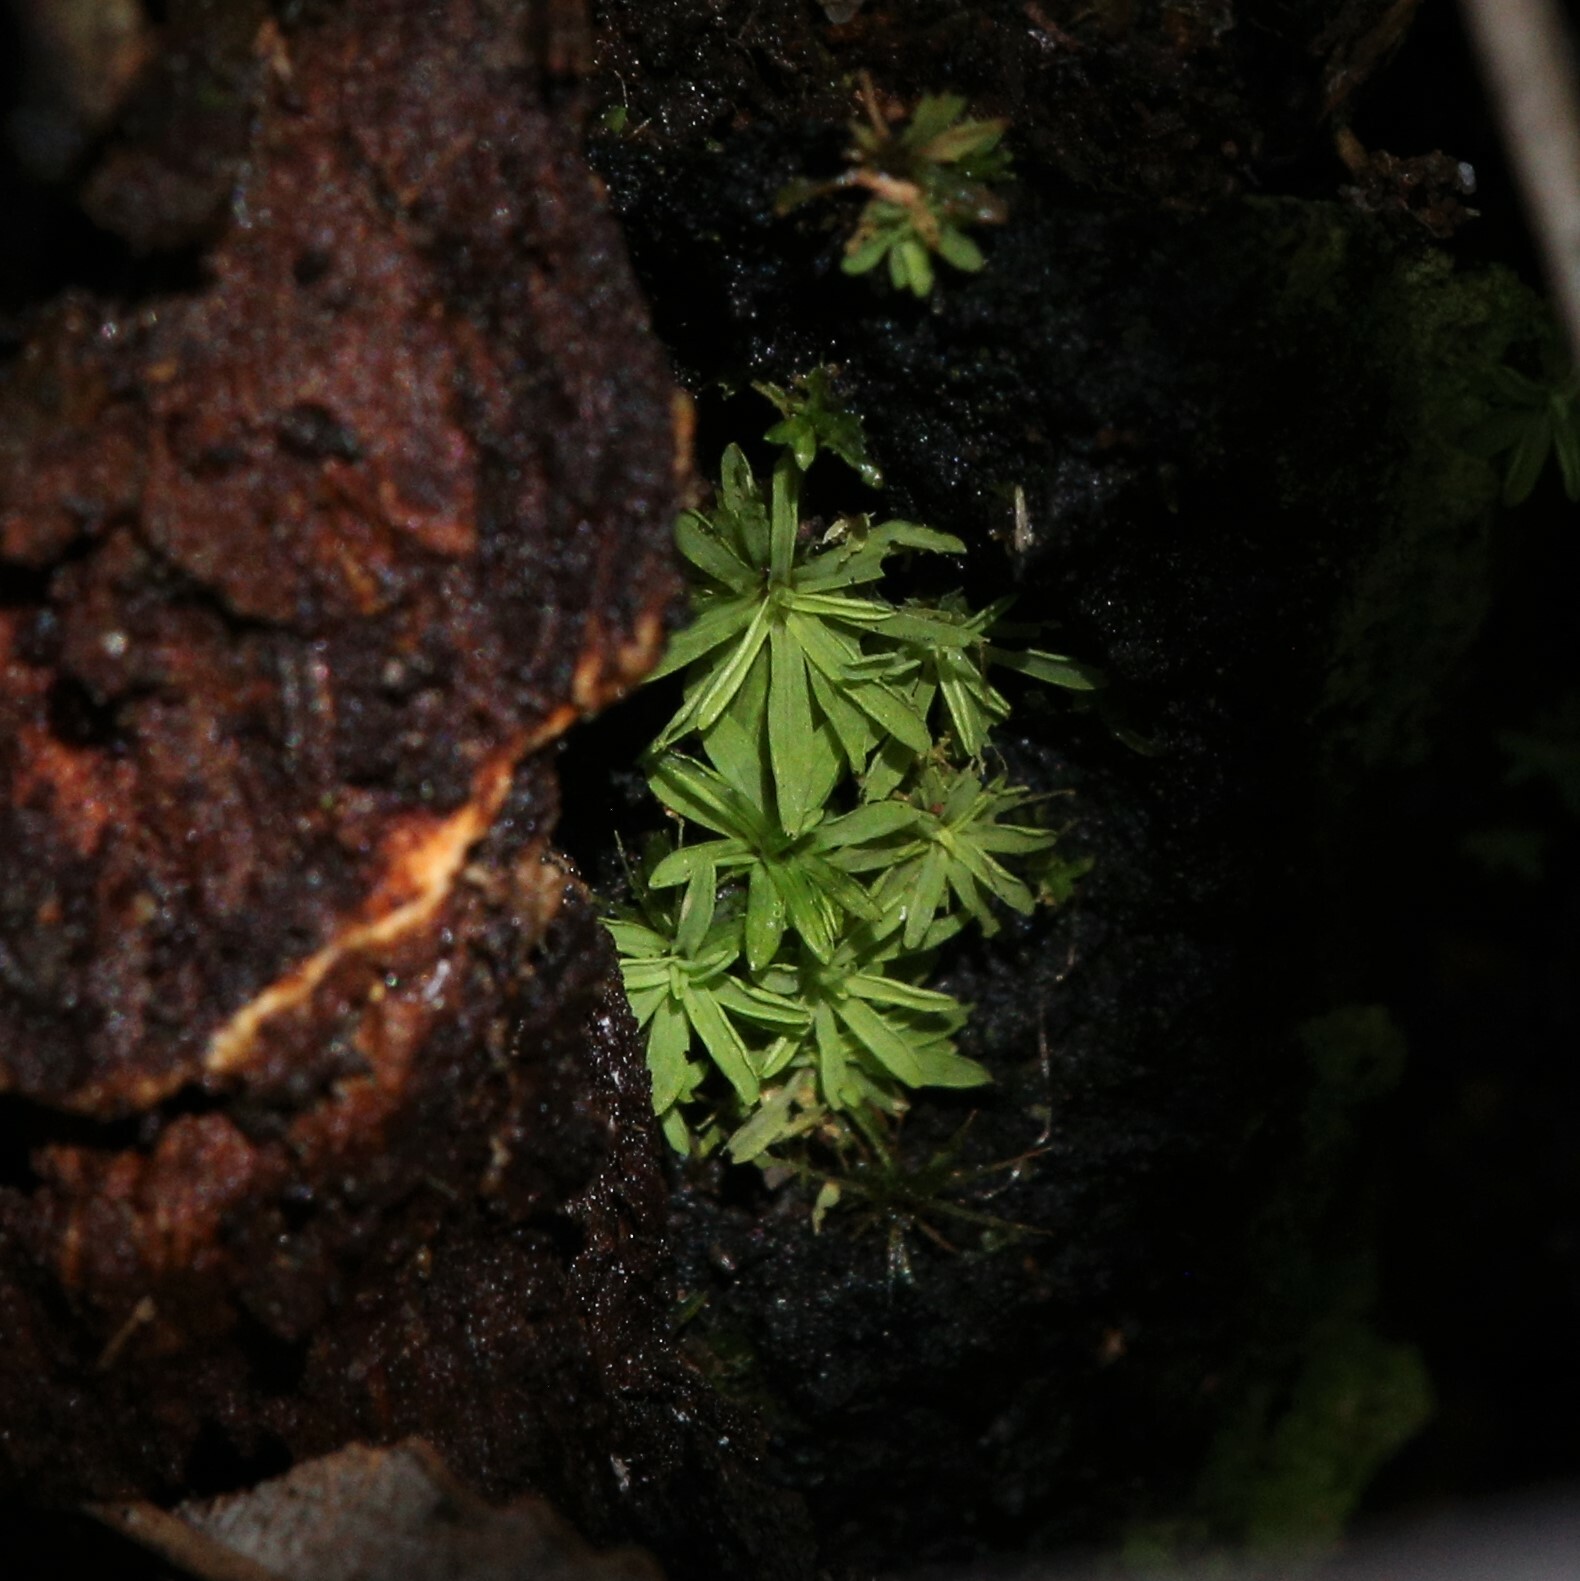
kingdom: Plantae
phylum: Bryophyta
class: Bryopsida
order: Pottiales
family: Pottiaceae
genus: Calymperastrum
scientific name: Calymperastrum latifolium
